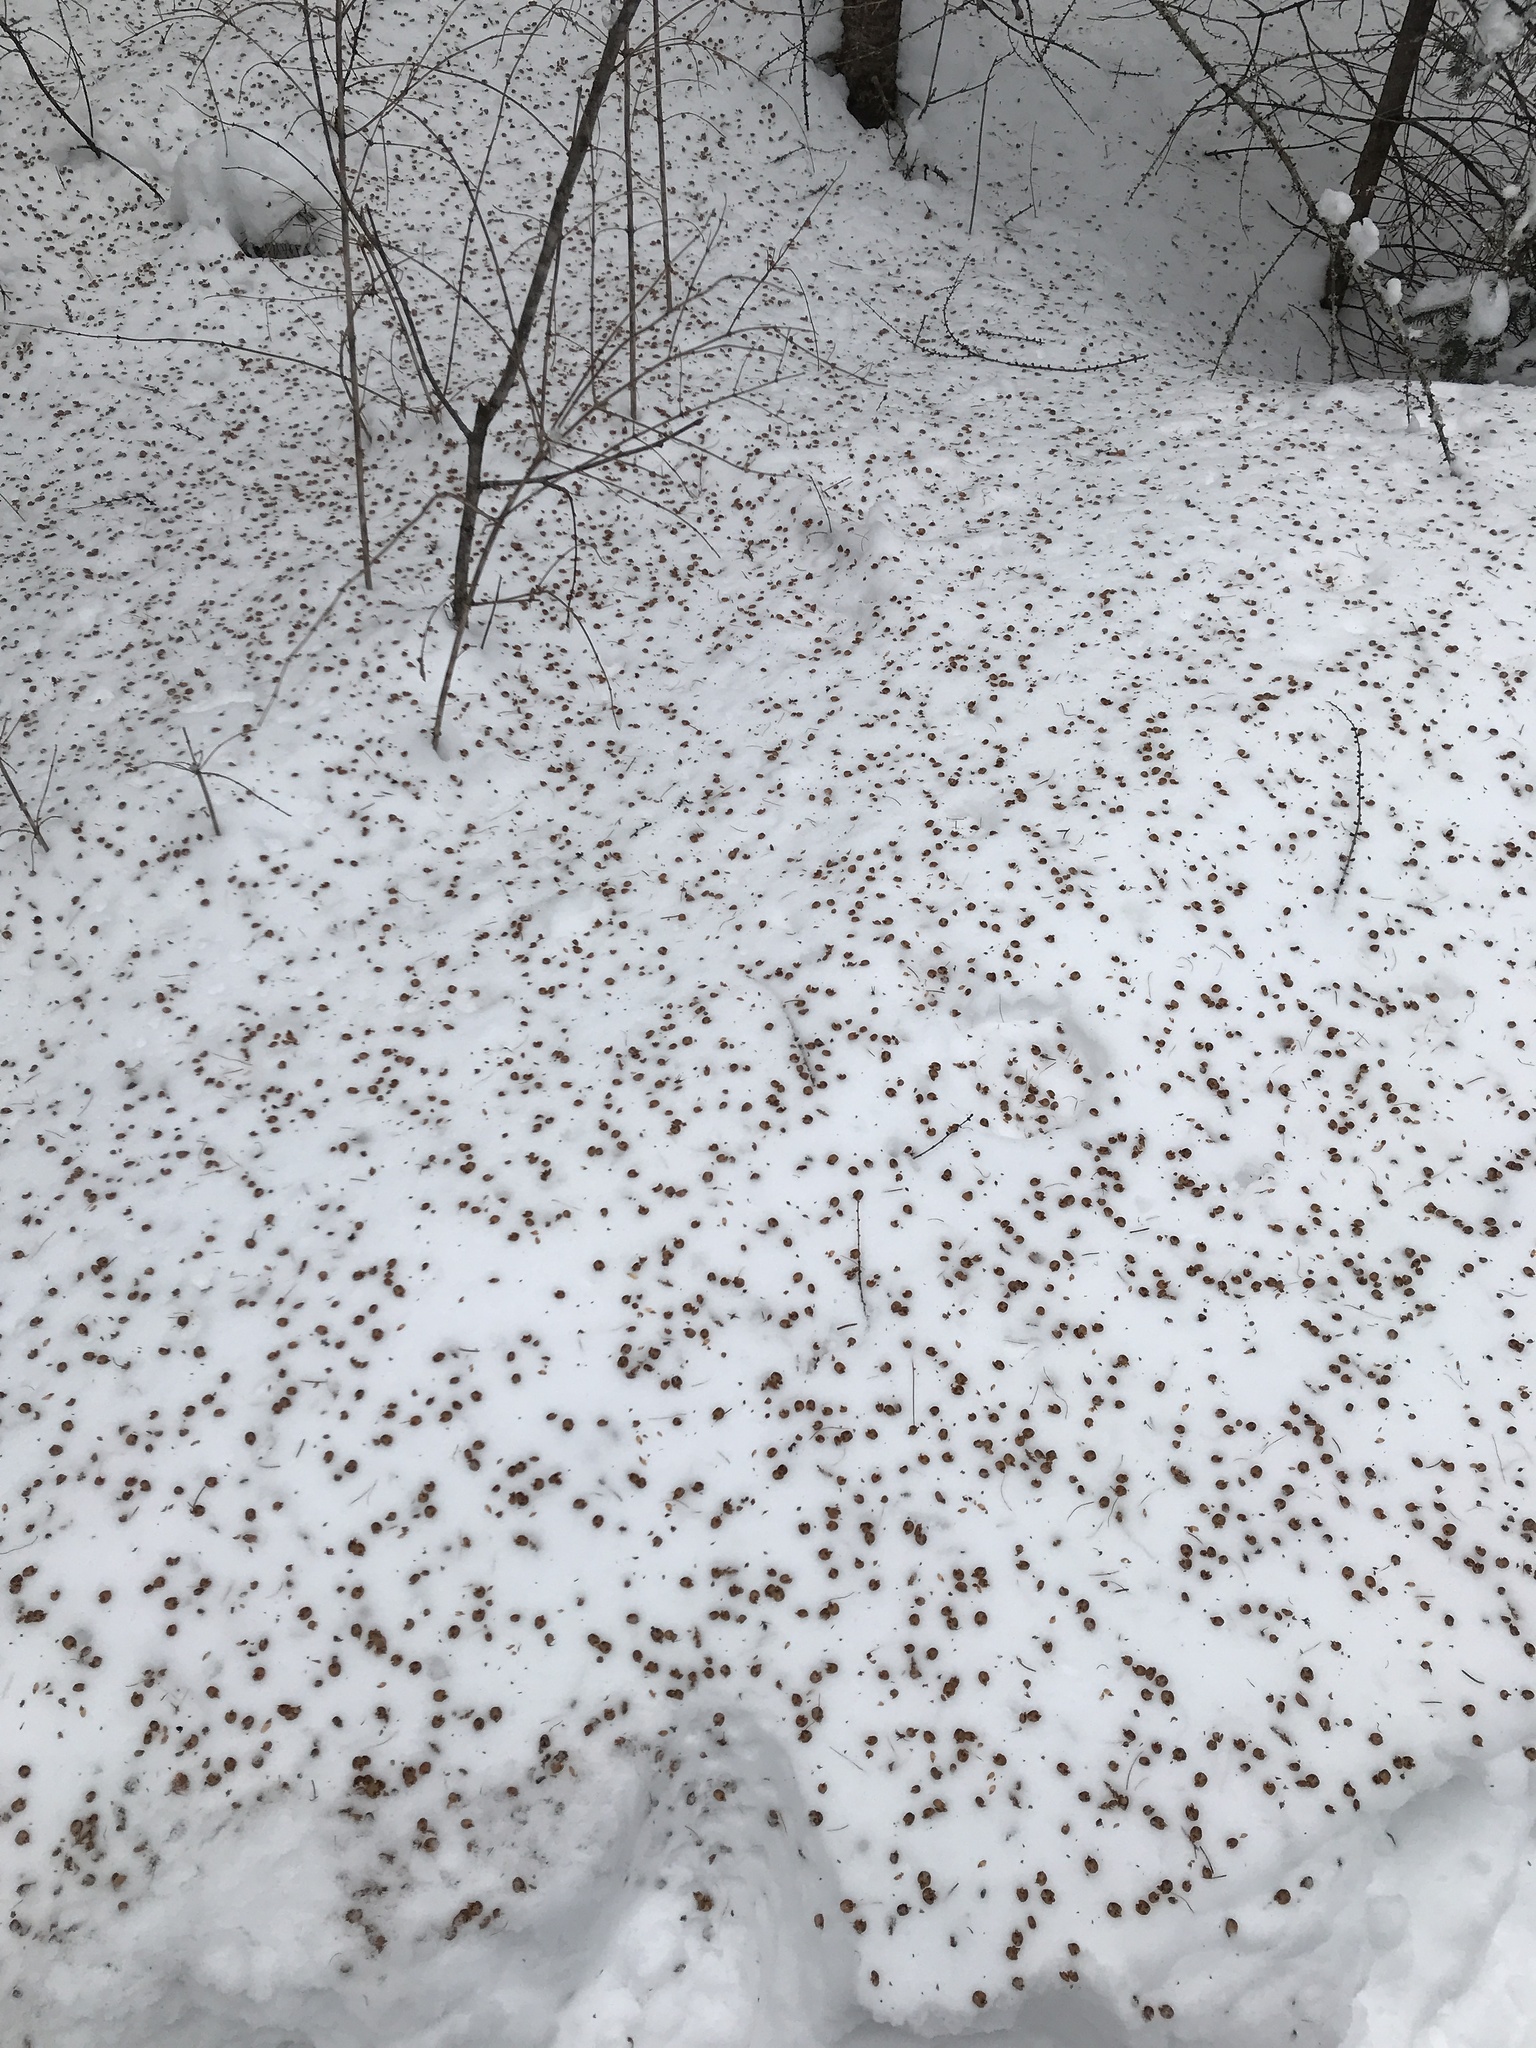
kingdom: Plantae
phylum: Tracheophyta
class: Pinopsida
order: Pinales
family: Pinaceae
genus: Larix
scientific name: Larix laricina
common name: American larch
